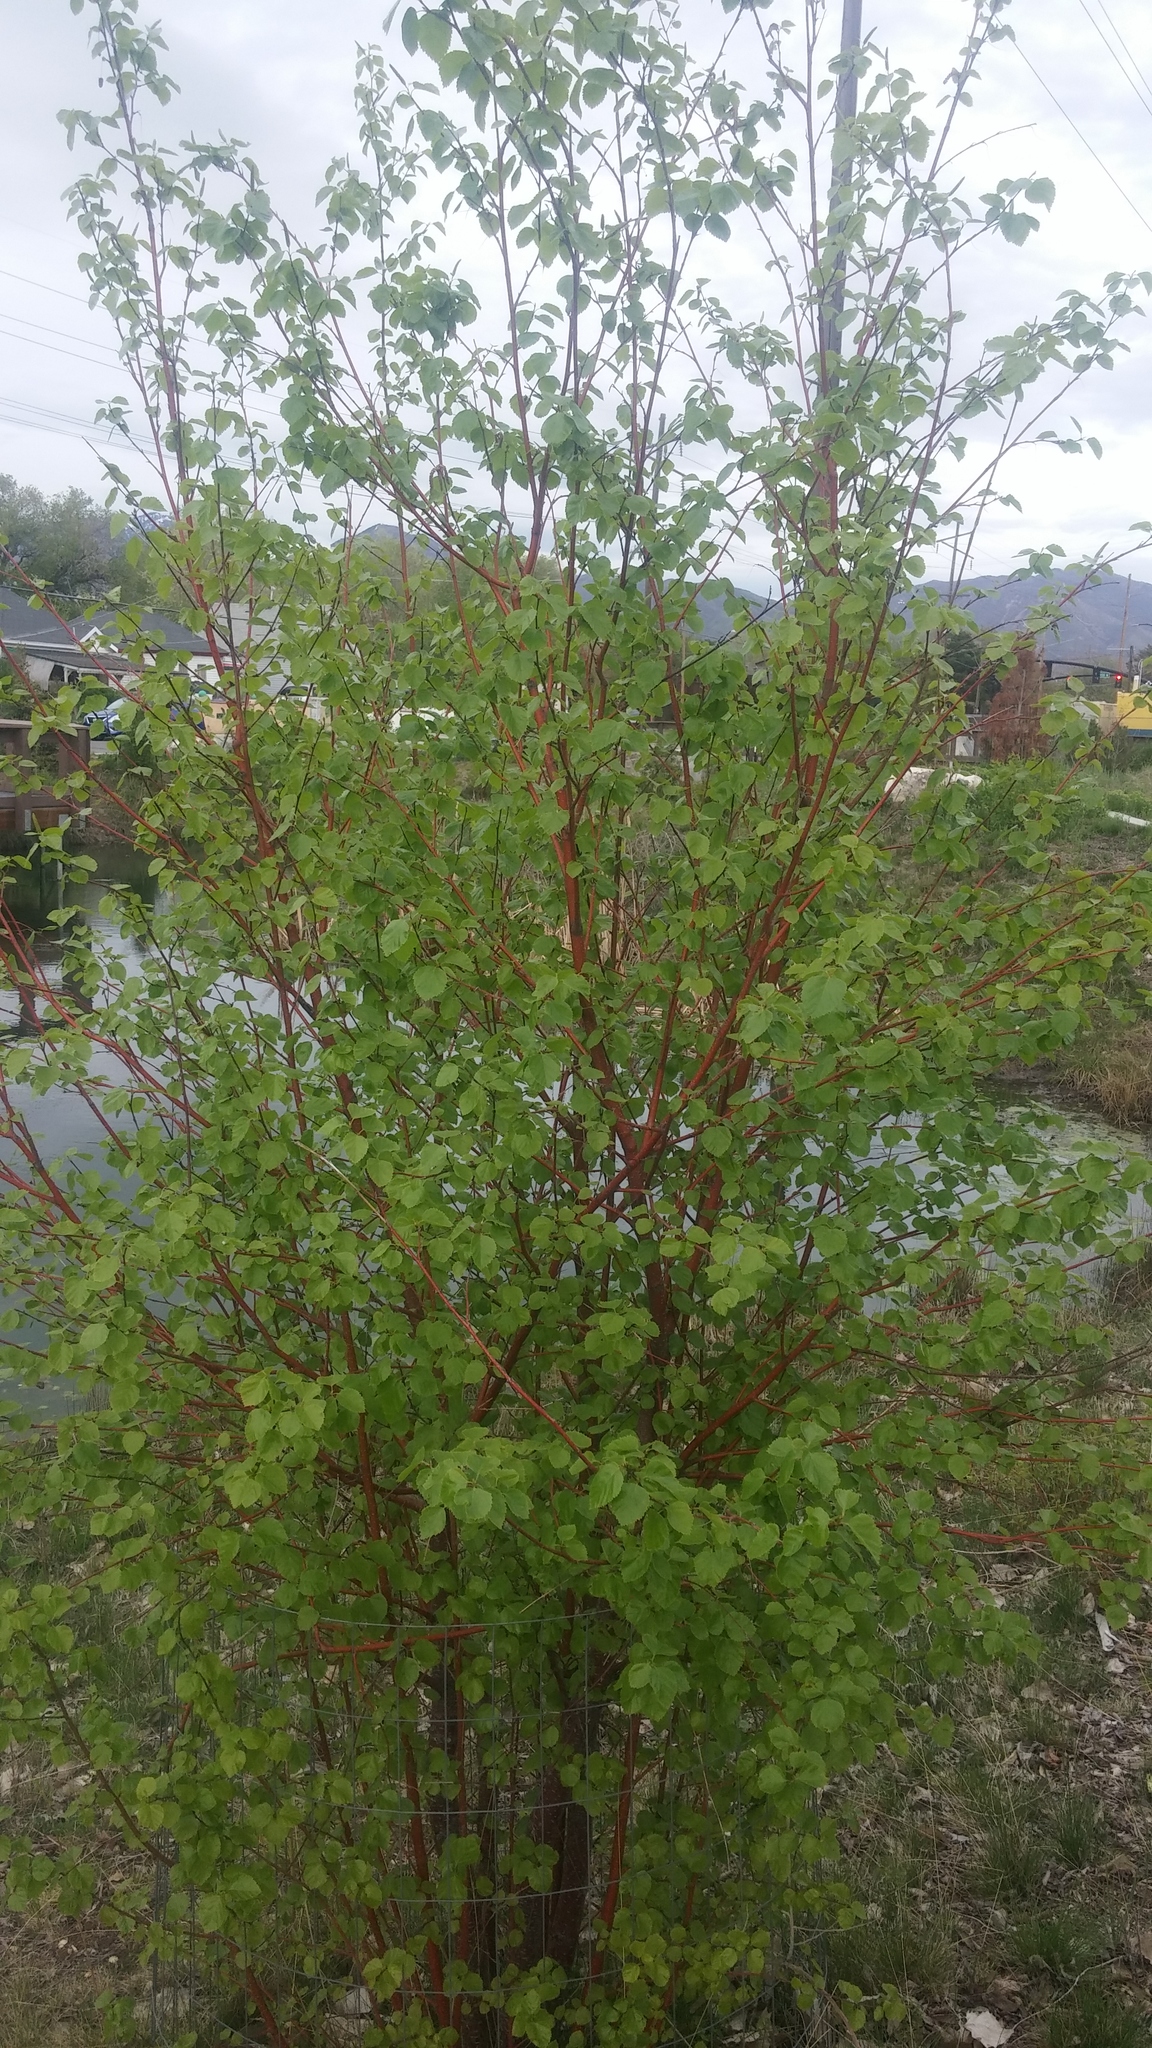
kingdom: Plantae
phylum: Tracheophyta
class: Magnoliopsida
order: Fagales
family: Betulaceae
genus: Betula
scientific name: Betula occidentalis
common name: River birch
